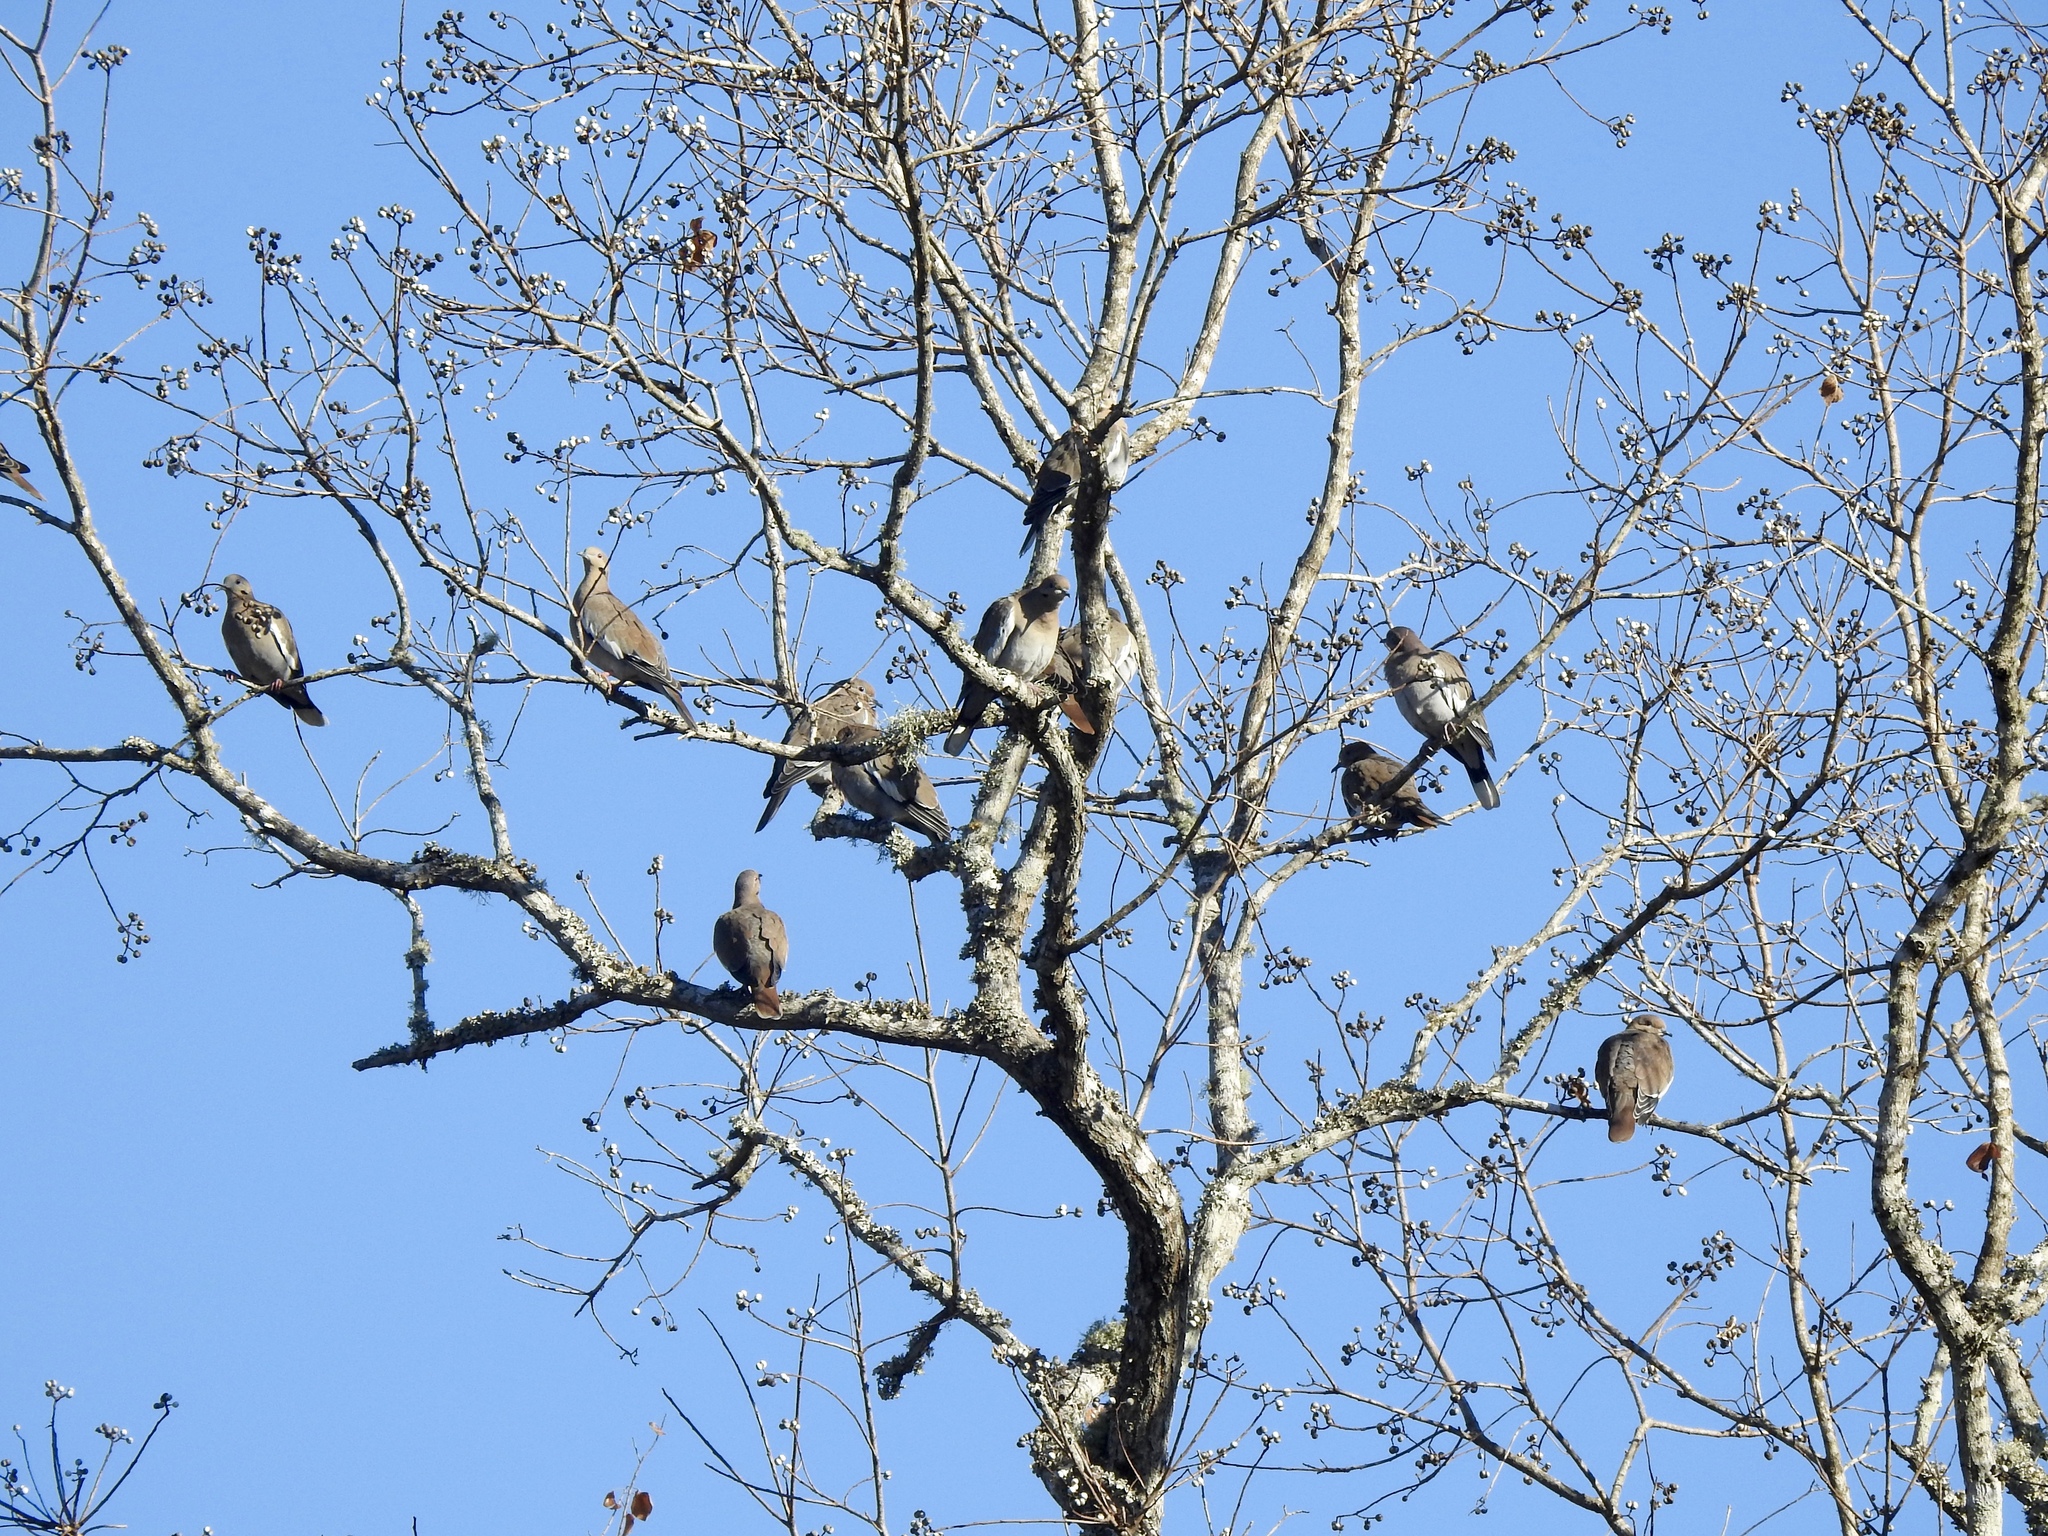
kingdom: Animalia
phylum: Chordata
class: Aves
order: Columbiformes
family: Columbidae
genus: Zenaida
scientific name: Zenaida asiatica
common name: White-winged dove
